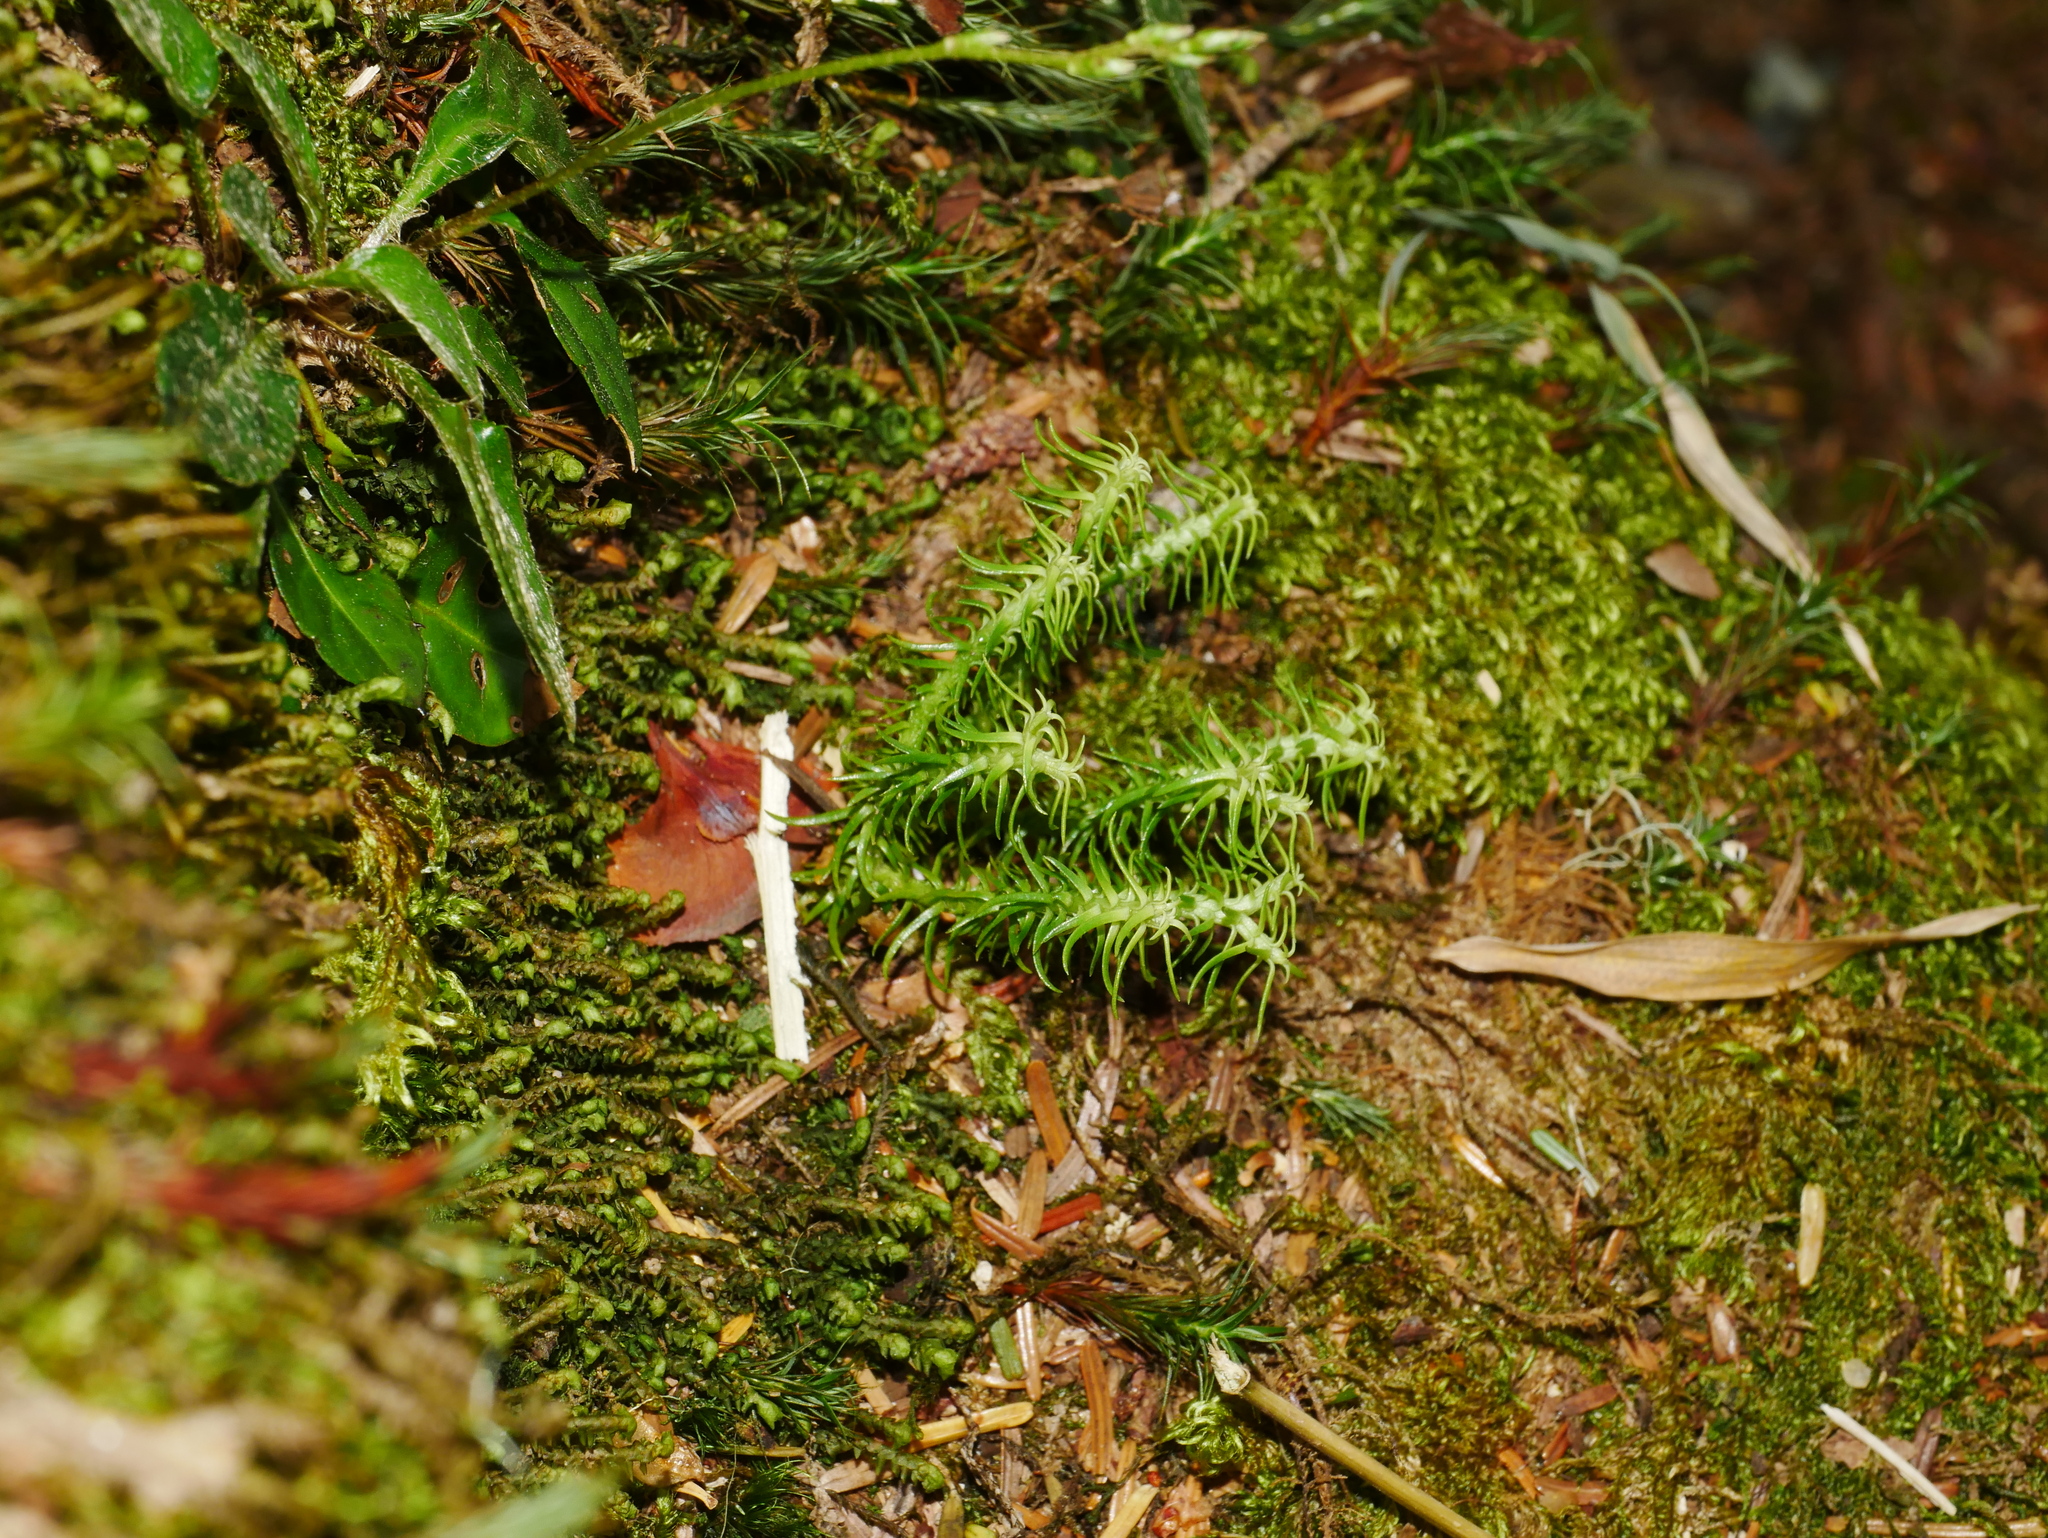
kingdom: Plantae
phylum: Tracheophyta
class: Lycopodiopsida
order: Lycopodiales
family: Lycopodiaceae
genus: Huperzia
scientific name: Huperzia quasipolytrichoides
